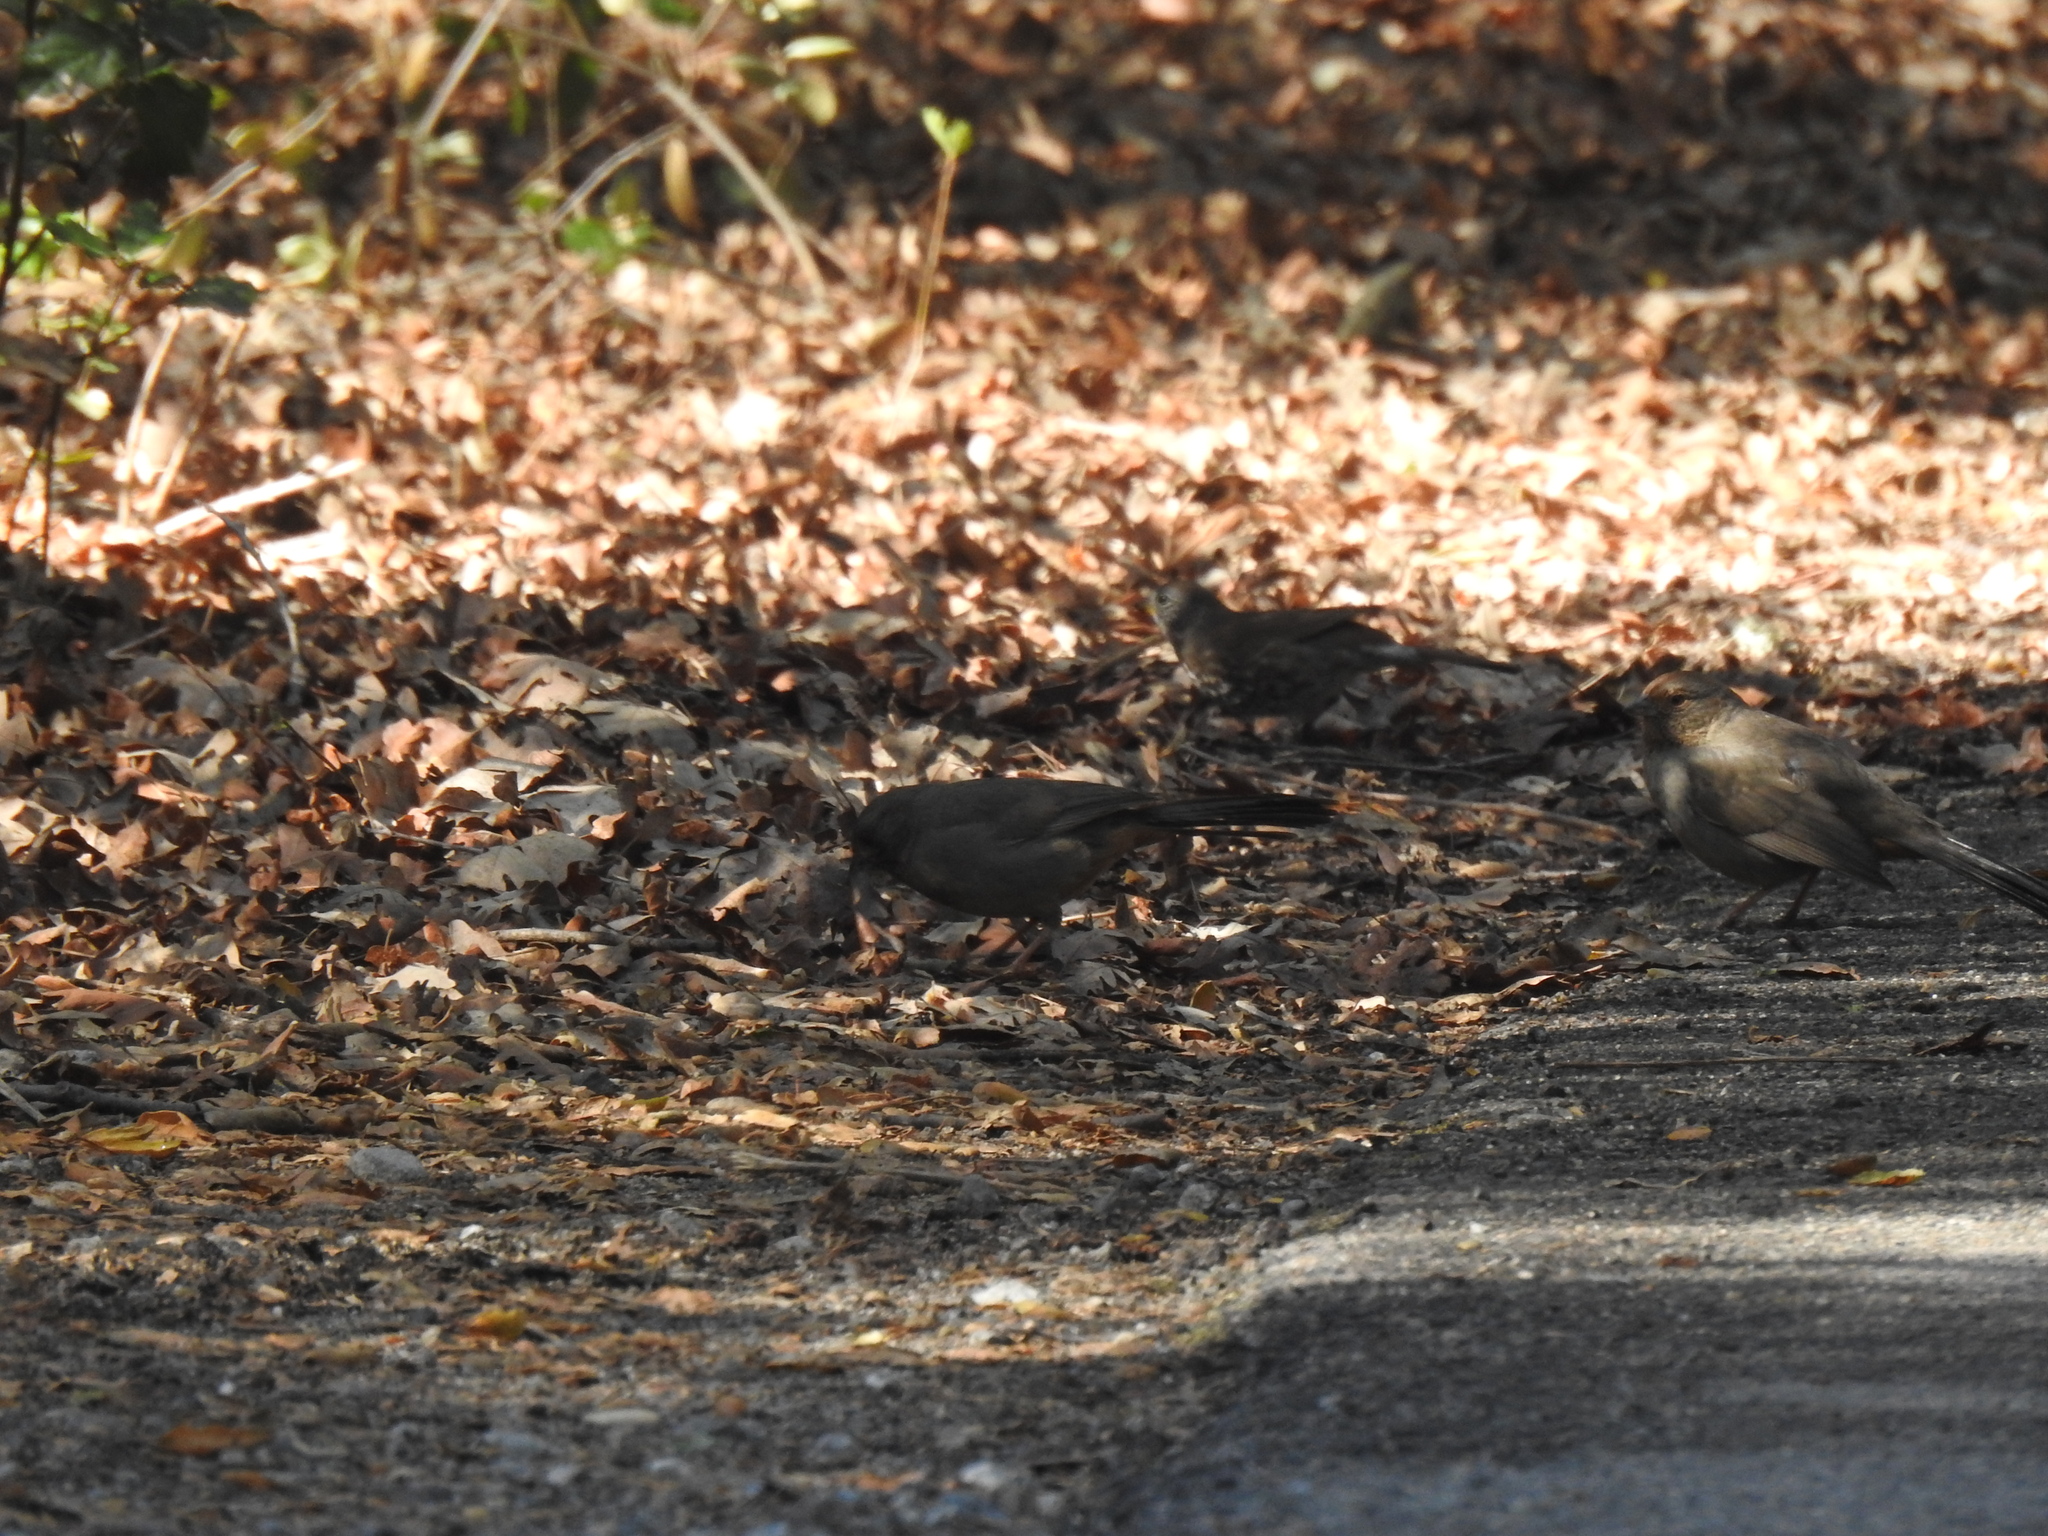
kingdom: Animalia
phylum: Chordata
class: Aves
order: Passeriformes
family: Passerellidae
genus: Melozone
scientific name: Melozone crissalis
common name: California towhee
